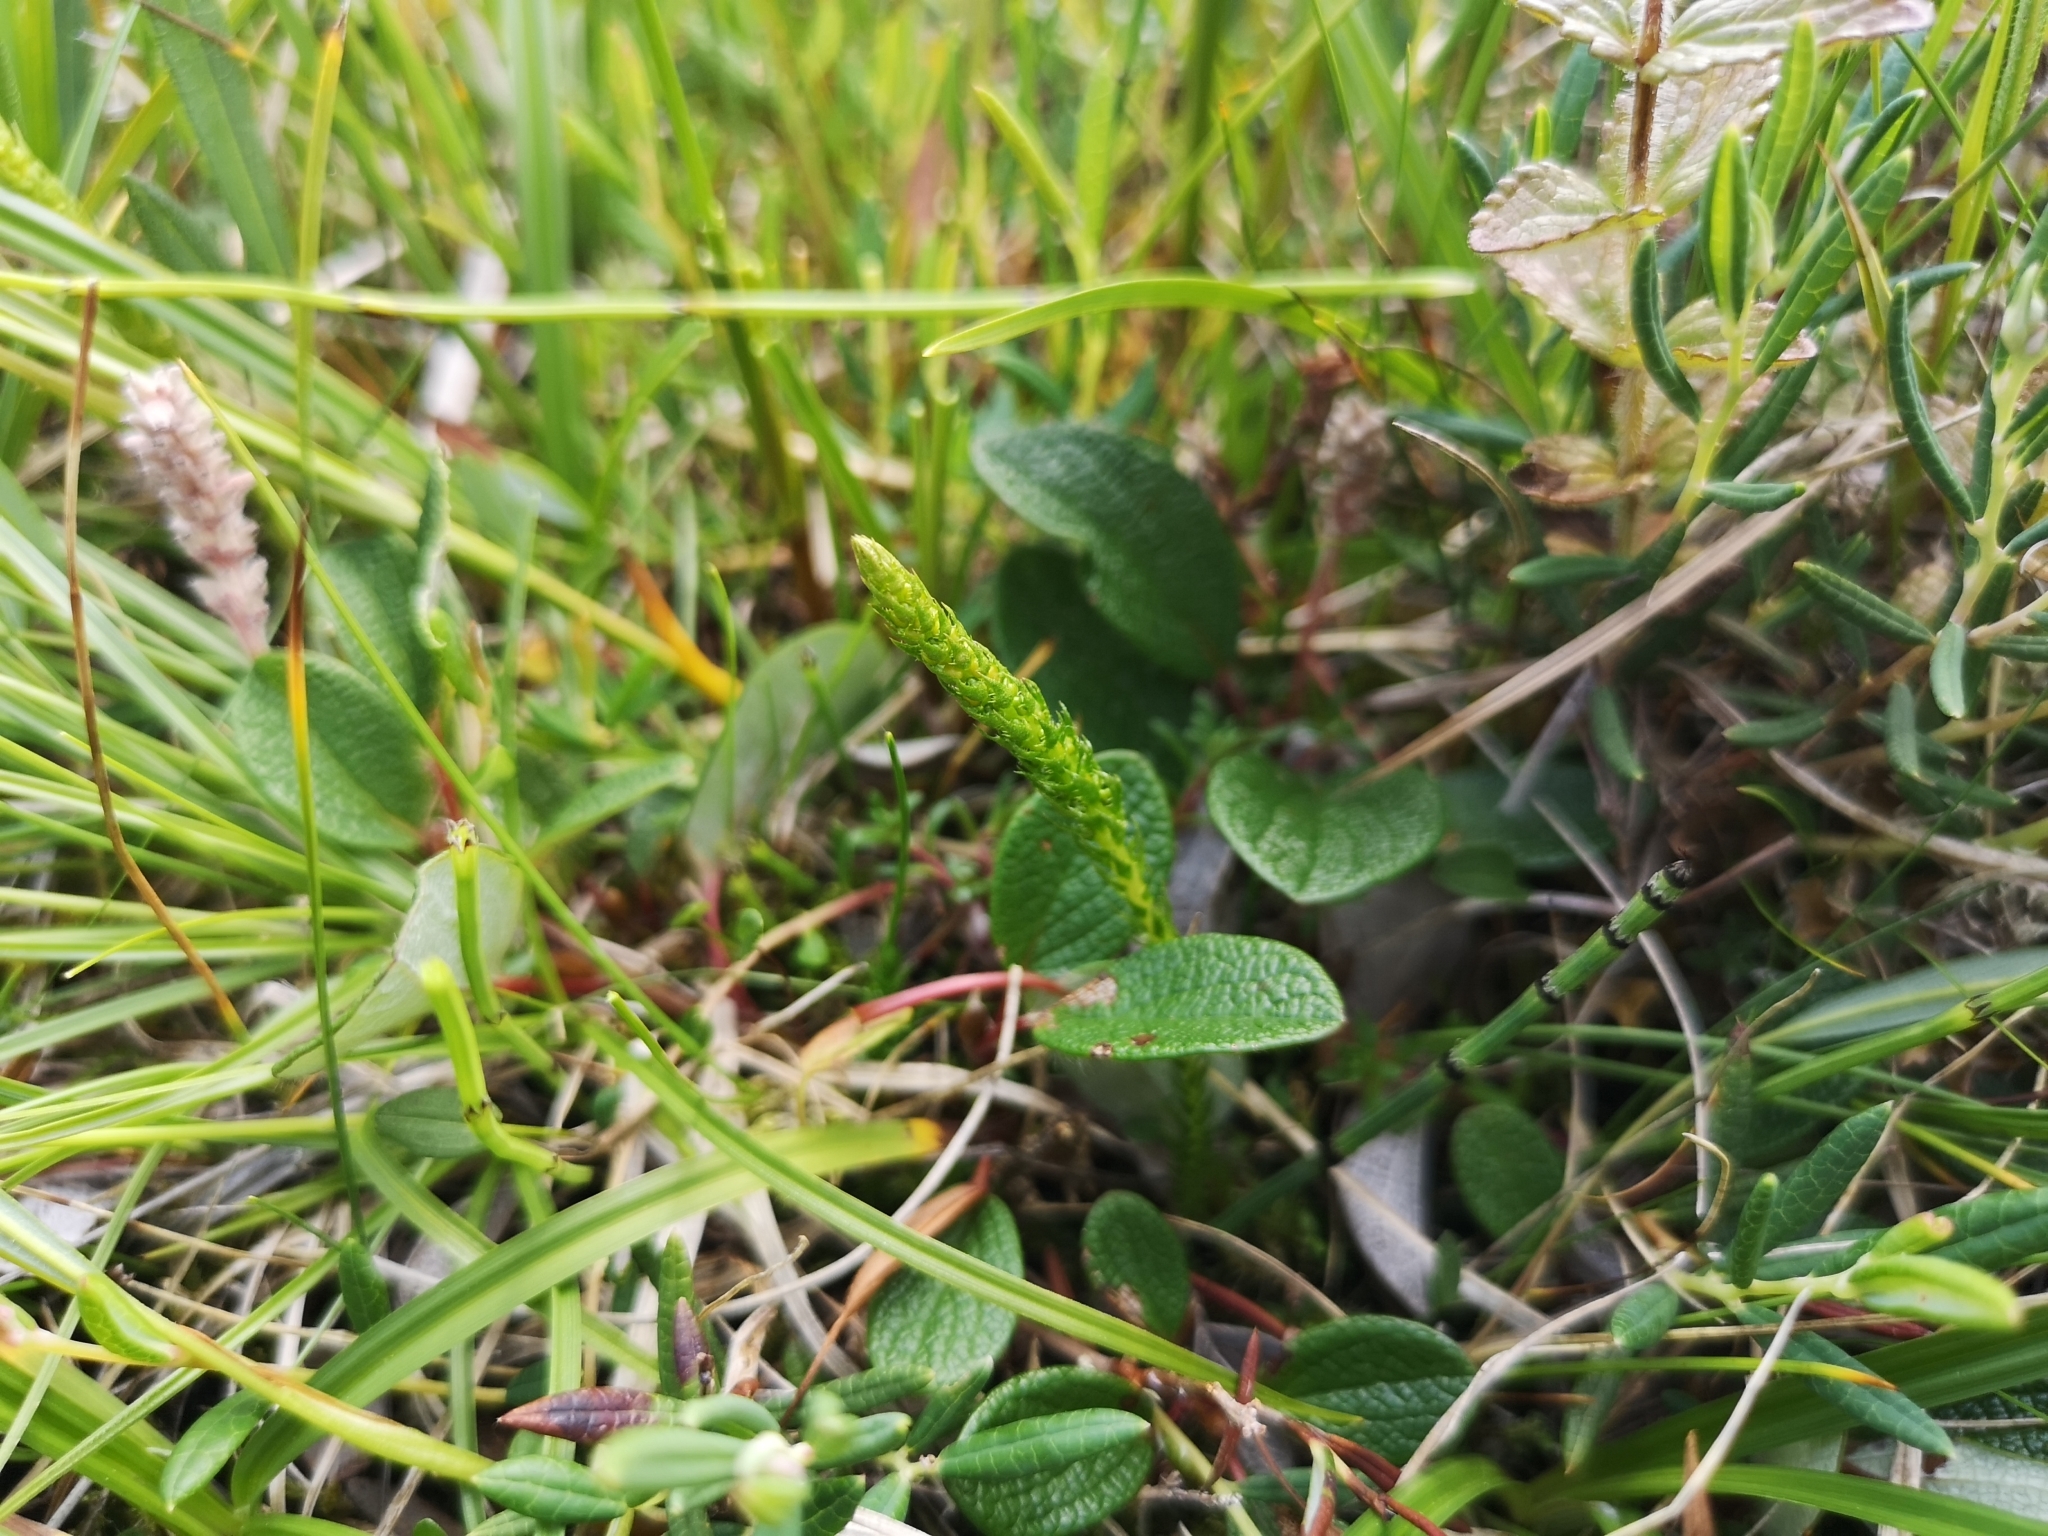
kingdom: Plantae
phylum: Tracheophyta
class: Lycopodiopsida
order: Selaginellales
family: Selaginellaceae
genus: Selaginella
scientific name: Selaginella selaginoides
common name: Prickly mountain-moss
